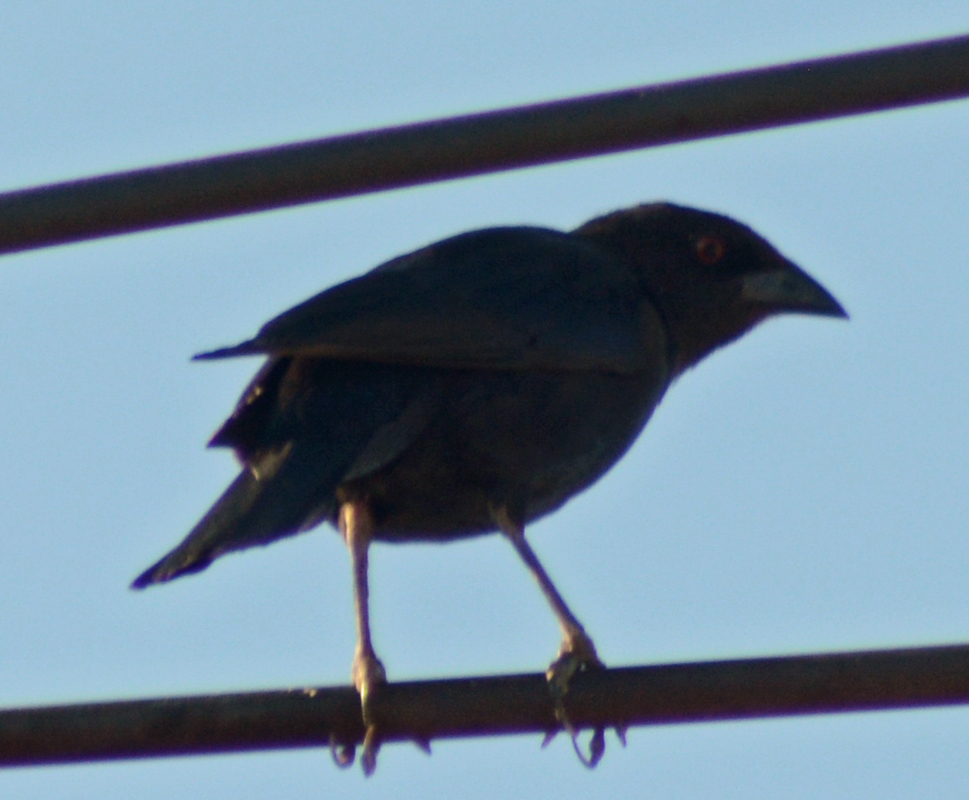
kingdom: Animalia
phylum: Chordata
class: Aves
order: Passeriformes
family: Icteridae
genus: Molothrus
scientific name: Molothrus aeneus
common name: Bronzed cowbird
